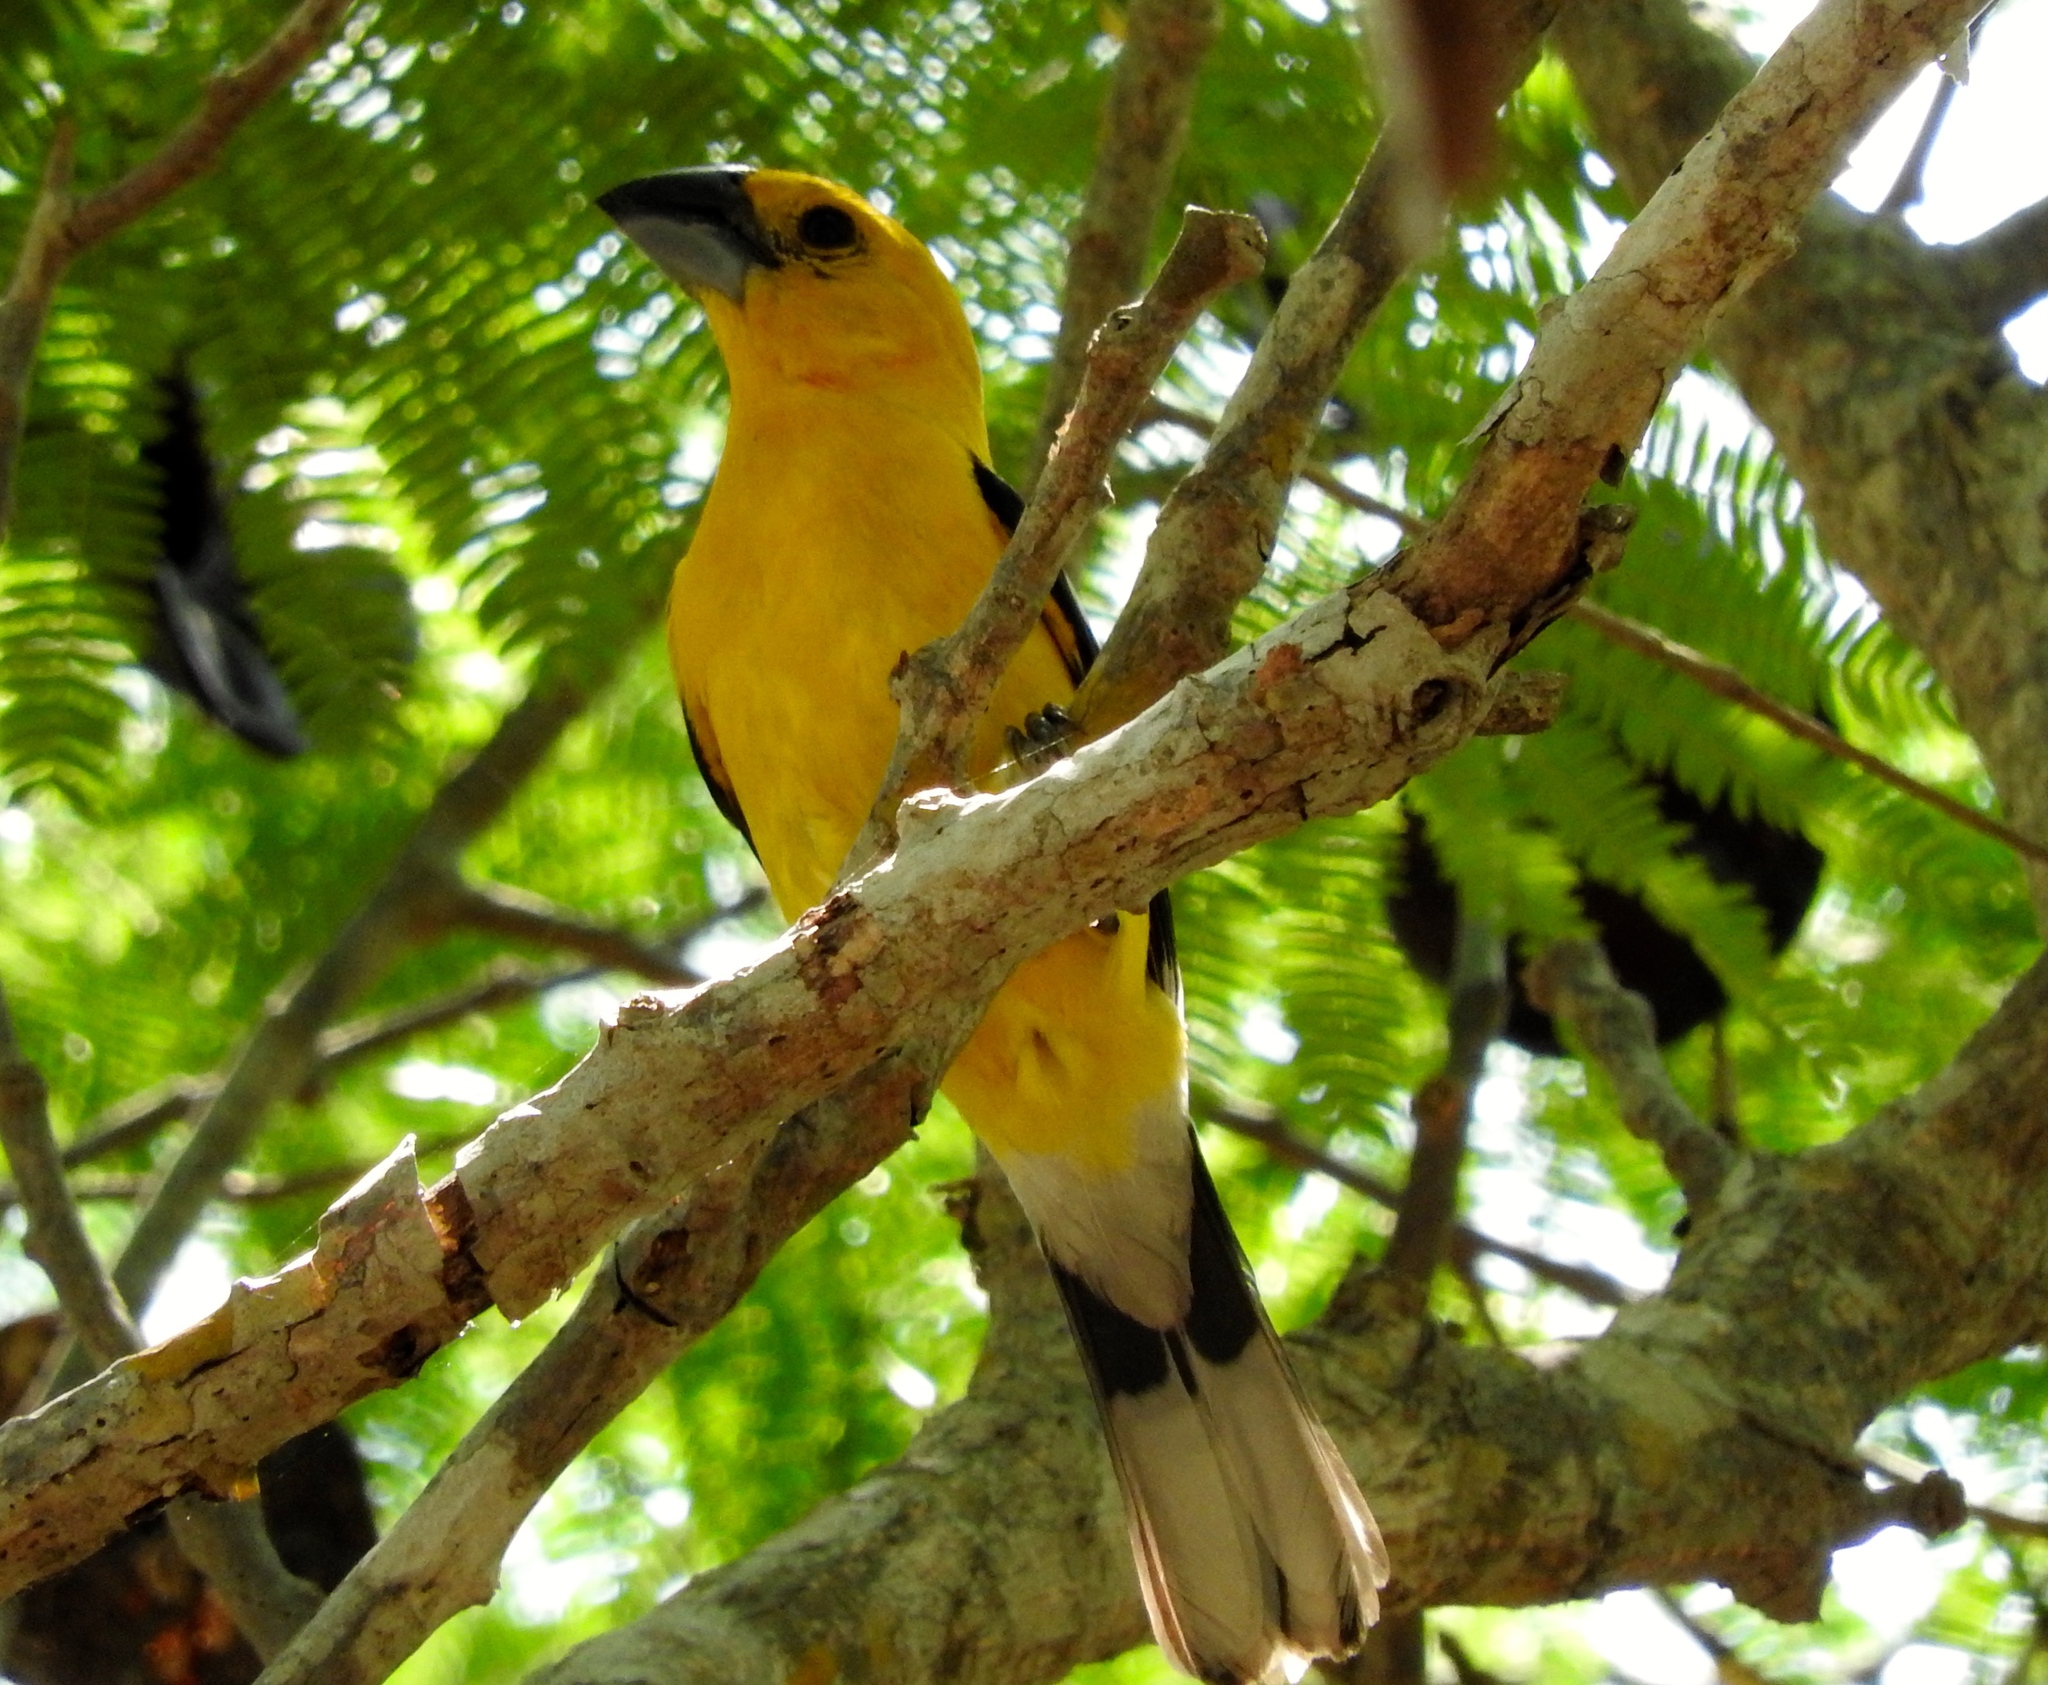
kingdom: Animalia
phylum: Chordata
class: Aves
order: Passeriformes
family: Cardinalidae
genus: Pheucticus
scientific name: Pheucticus chrysopeplus
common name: Yellow grosbeak
